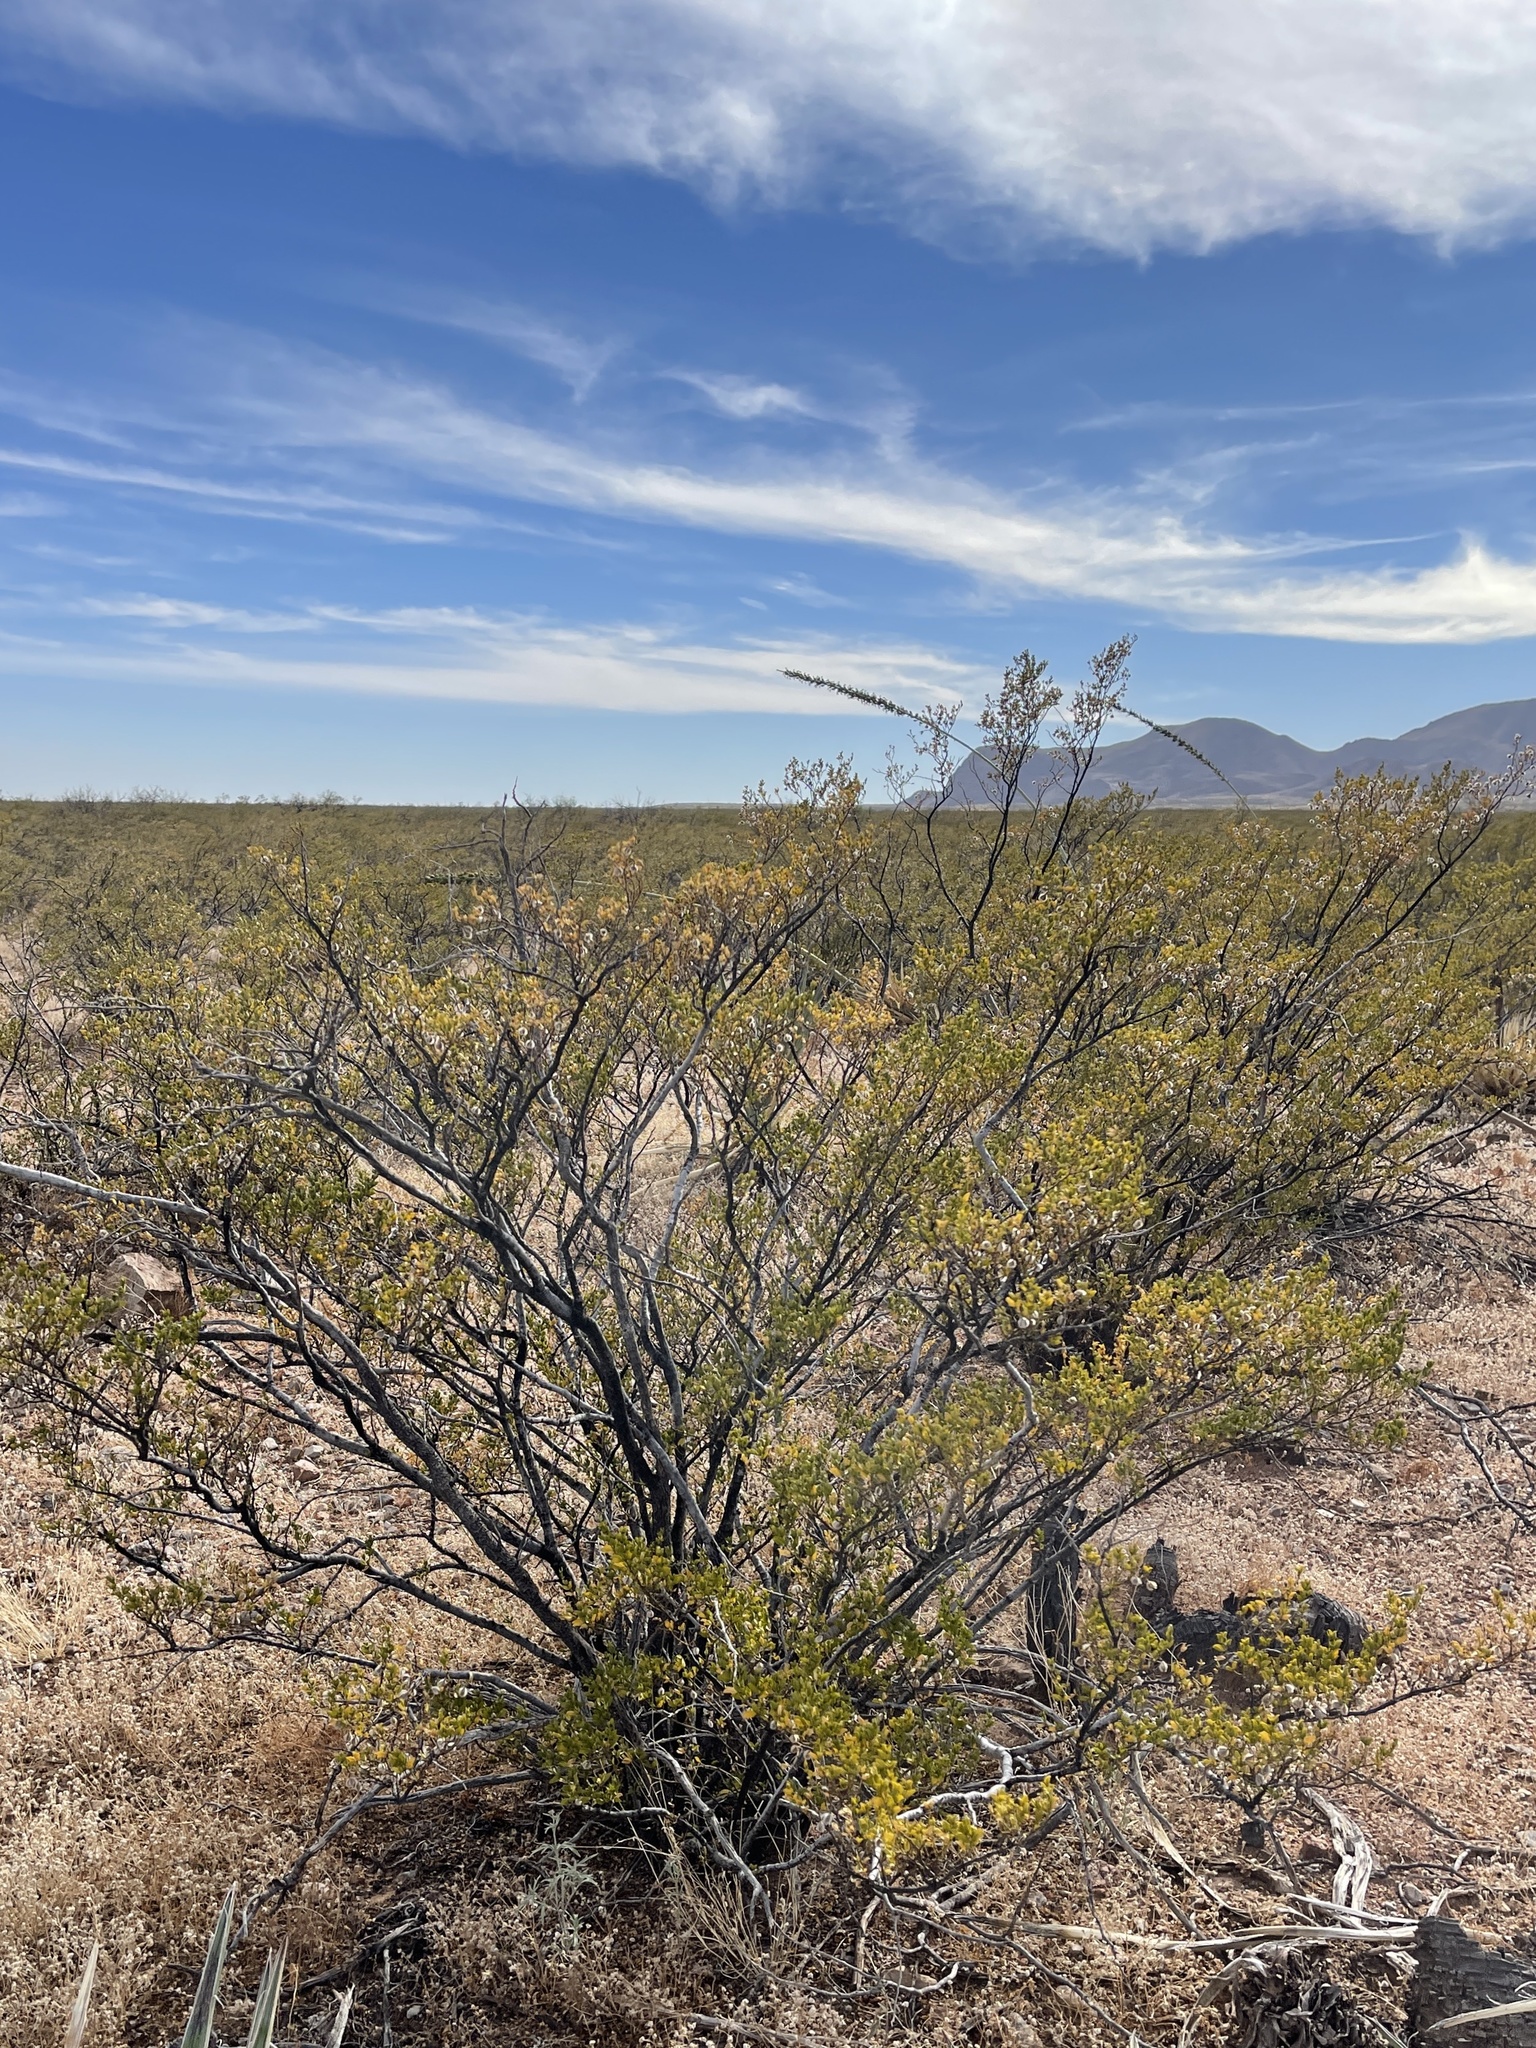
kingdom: Plantae
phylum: Tracheophyta
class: Magnoliopsida
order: Zygophyllales
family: Zygophyllaceae
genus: Larrea
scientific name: Larrea tridentata
